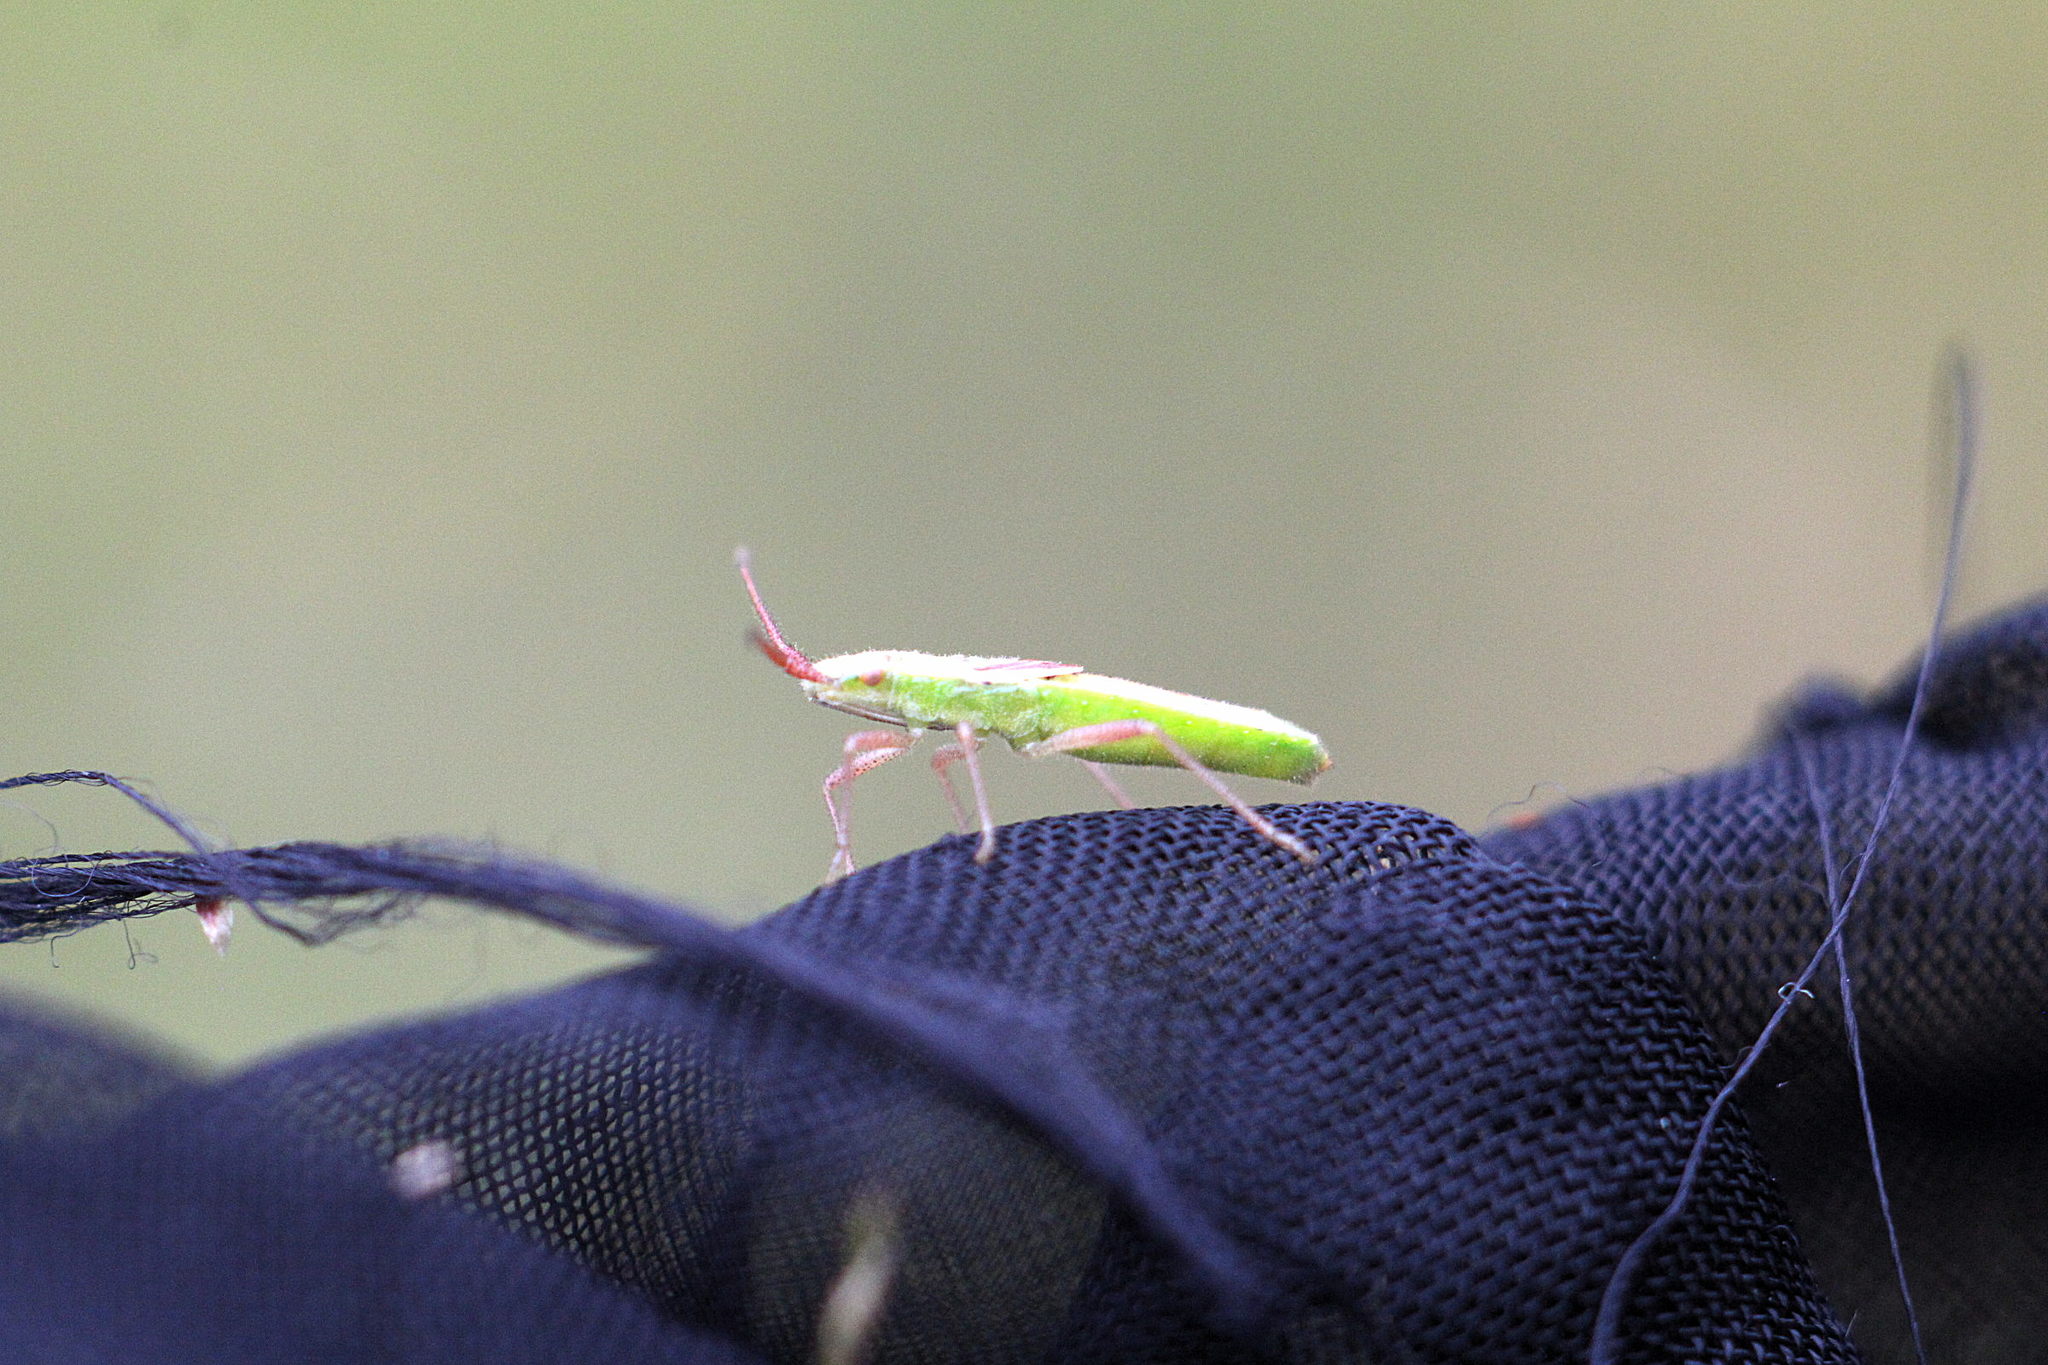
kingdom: Animalia
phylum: Arthropoda
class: Insecta
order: Hemiptera
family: Rhopalidae
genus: Myrmus
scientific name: Myrmus miriformis
